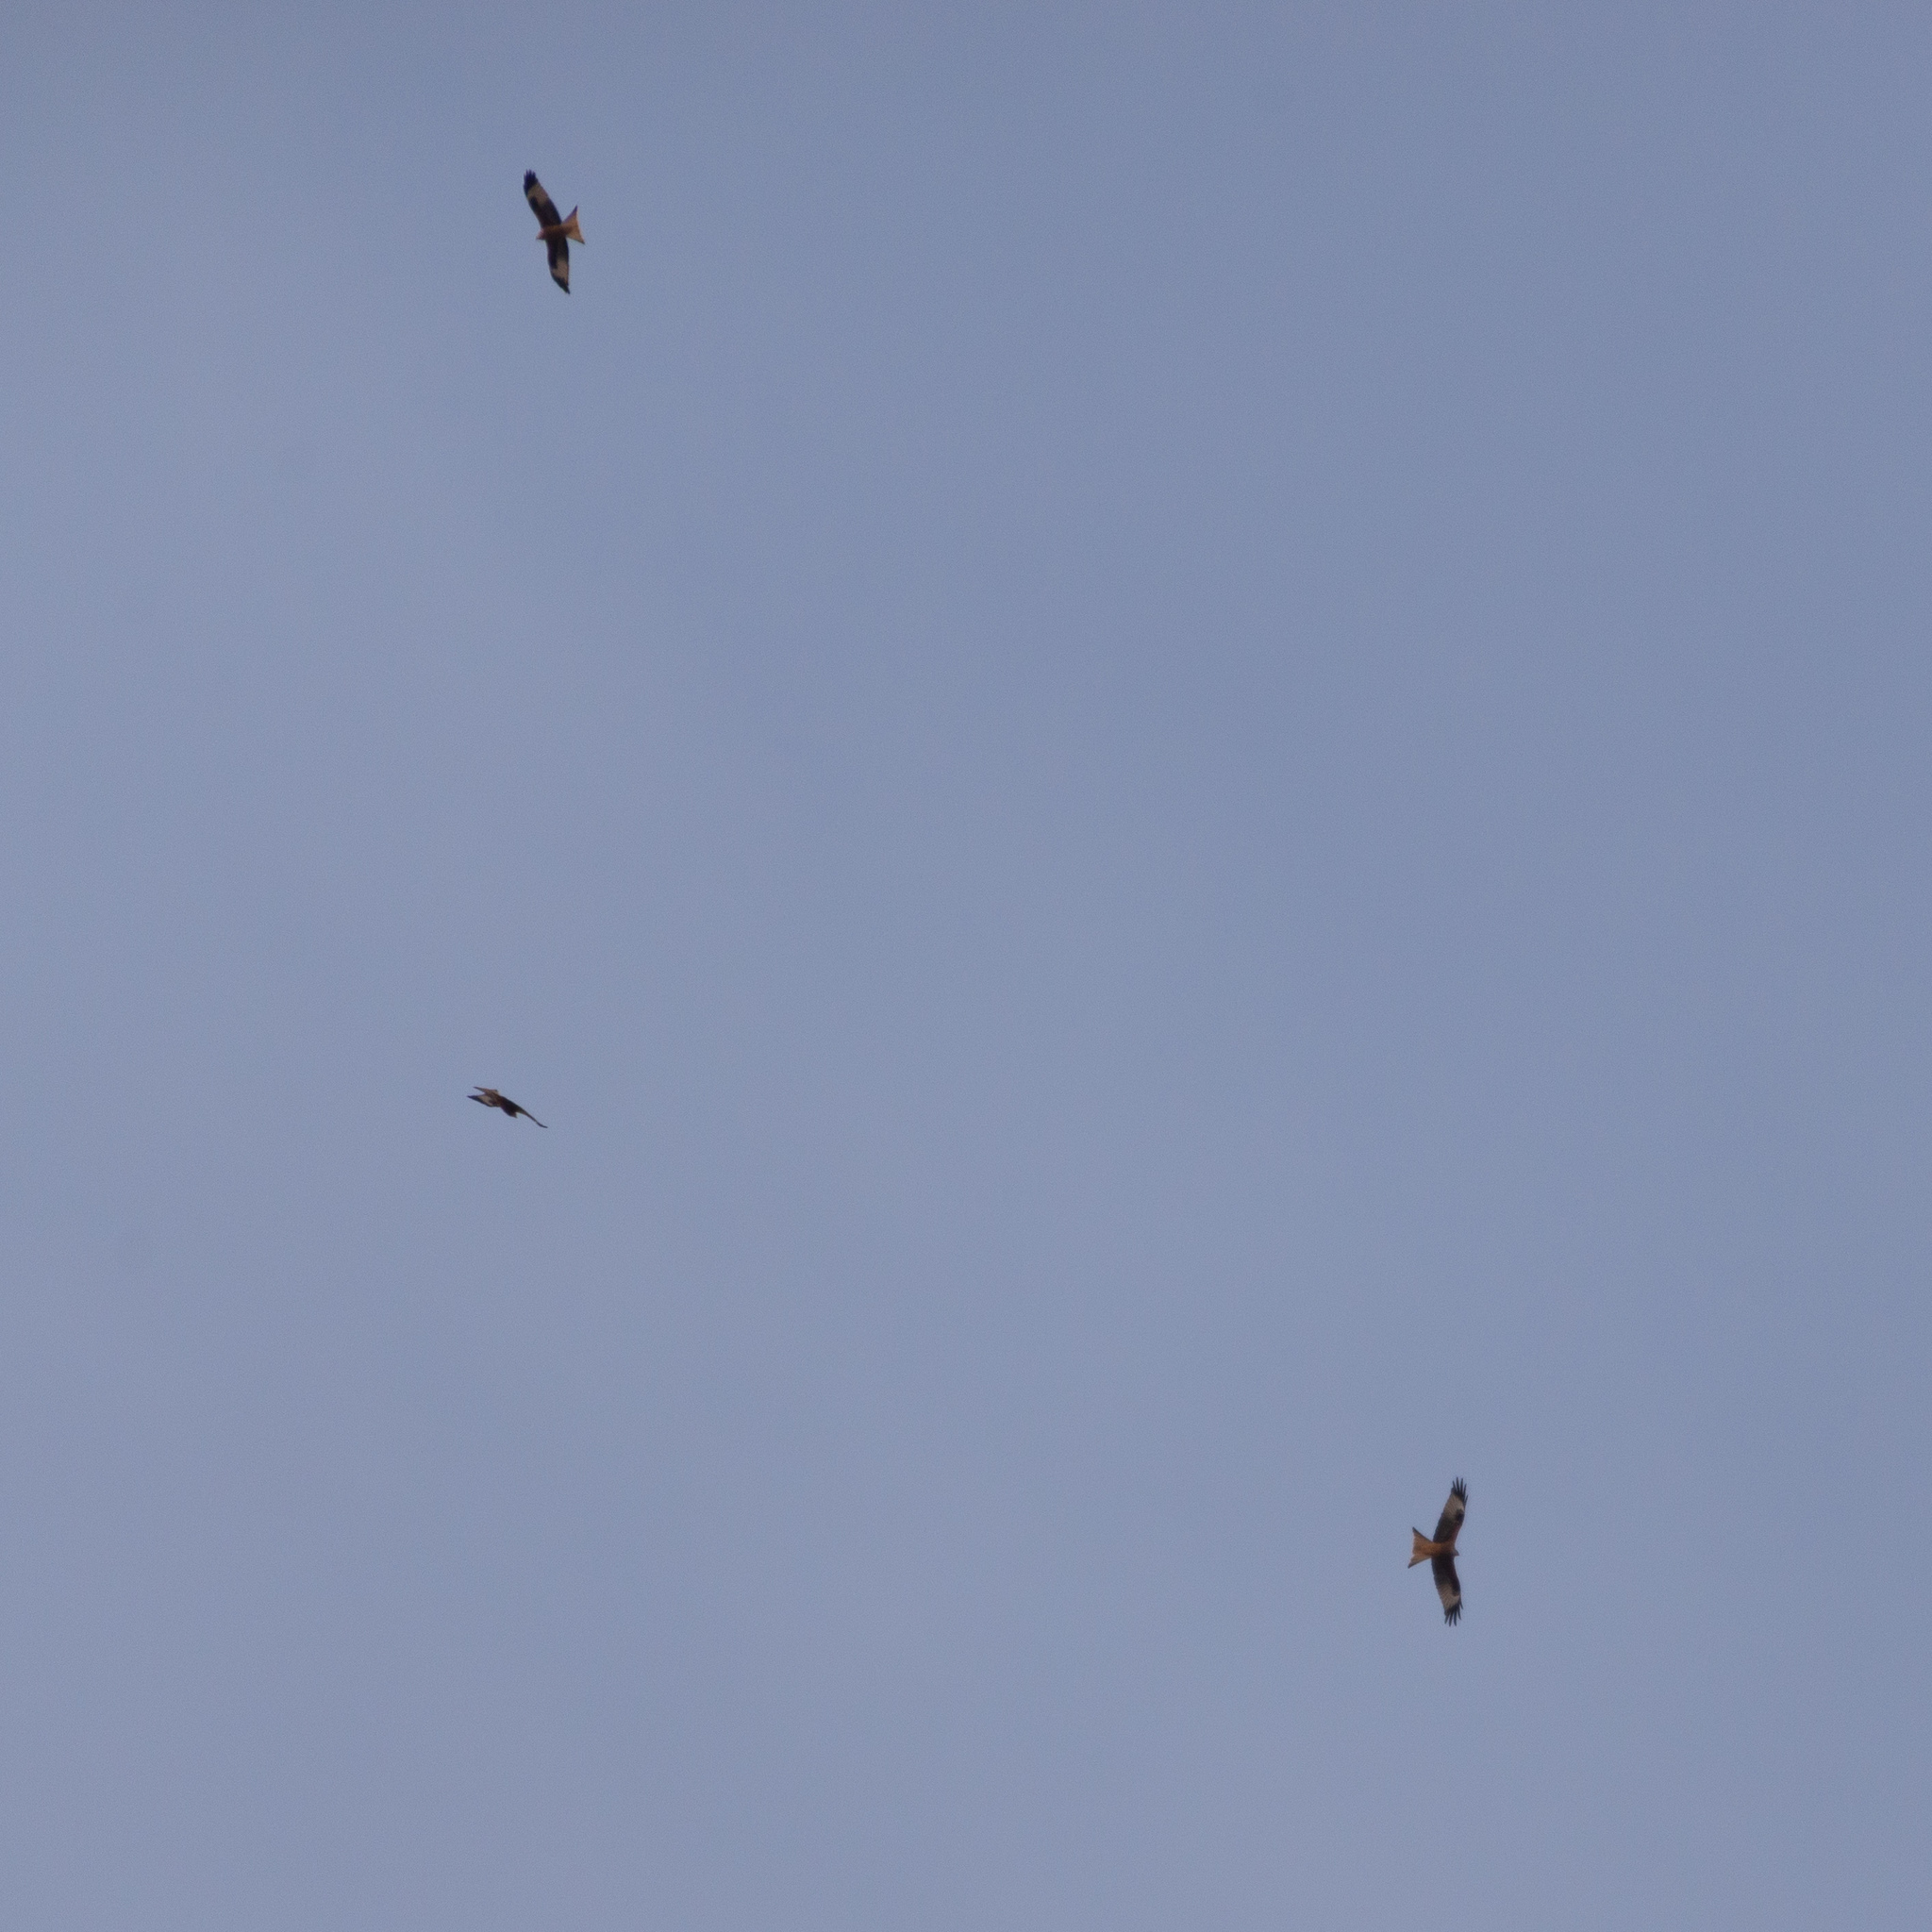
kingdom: Animalia
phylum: Chordata
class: Aves
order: Accipitriformes
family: Accipitridae
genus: Milvus
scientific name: Milvus milvus
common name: Red kite
